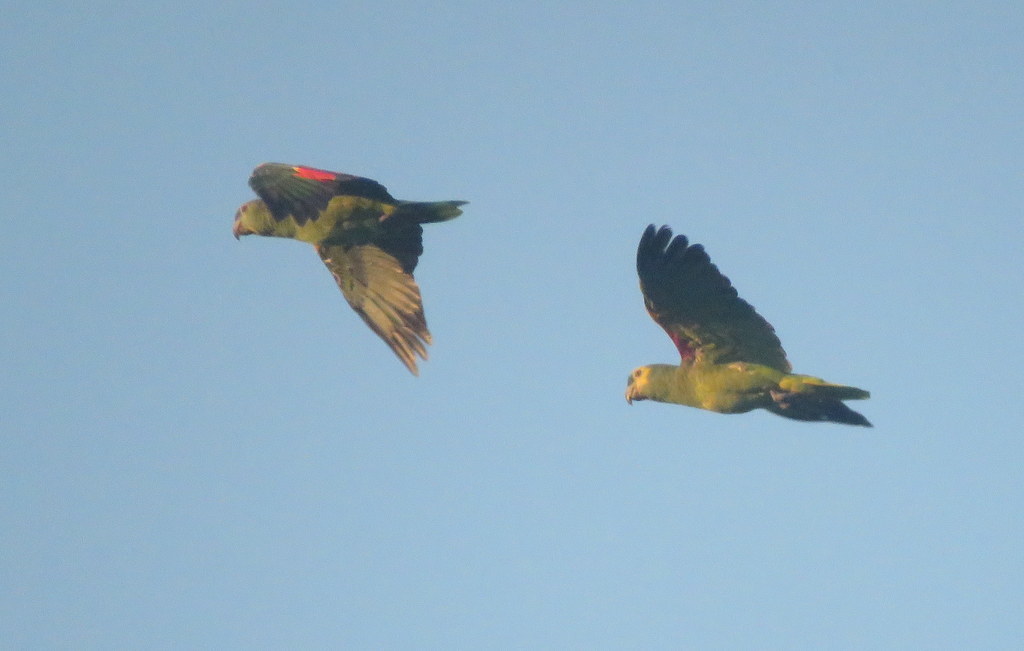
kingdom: Animalia
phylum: Chordata
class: Aves
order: Psittaciformes
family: Psittacidae
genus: Amazona
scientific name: Amazona aestiva
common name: Turquoise-fronted amazon
